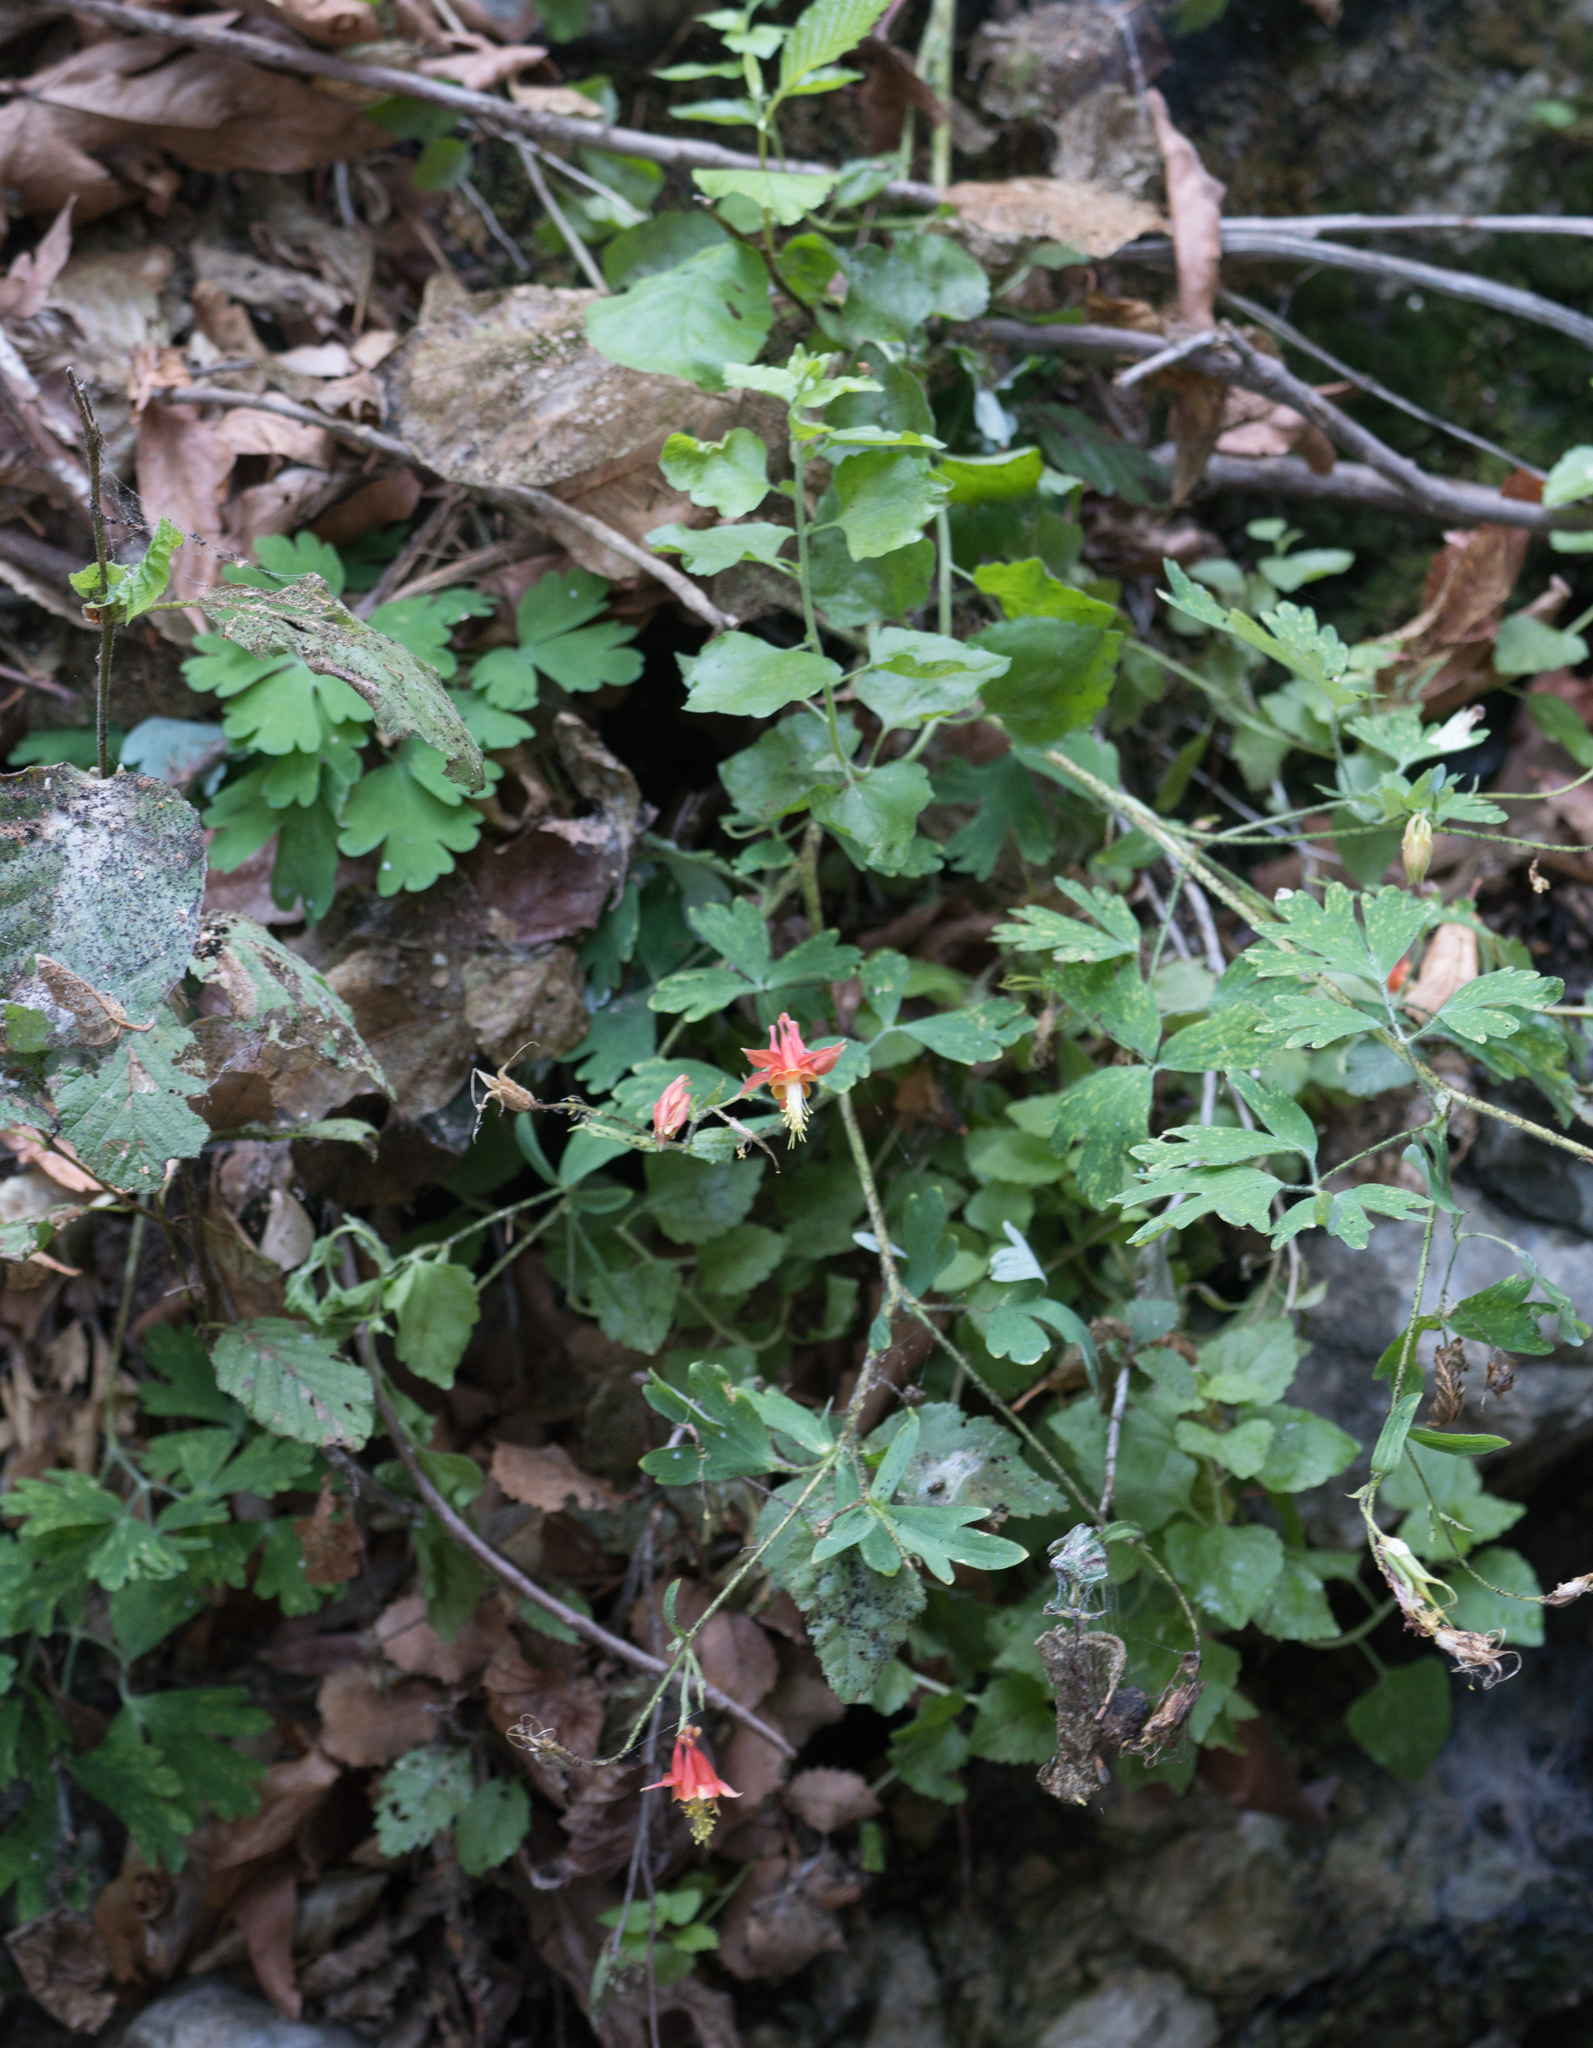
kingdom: Plantae
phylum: Tracheophyta
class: Magnoliopsida
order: Ranunculales
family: Ranunculaceae
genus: Aquilegia
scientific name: Aquilegia formosa
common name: Sitka columbine
